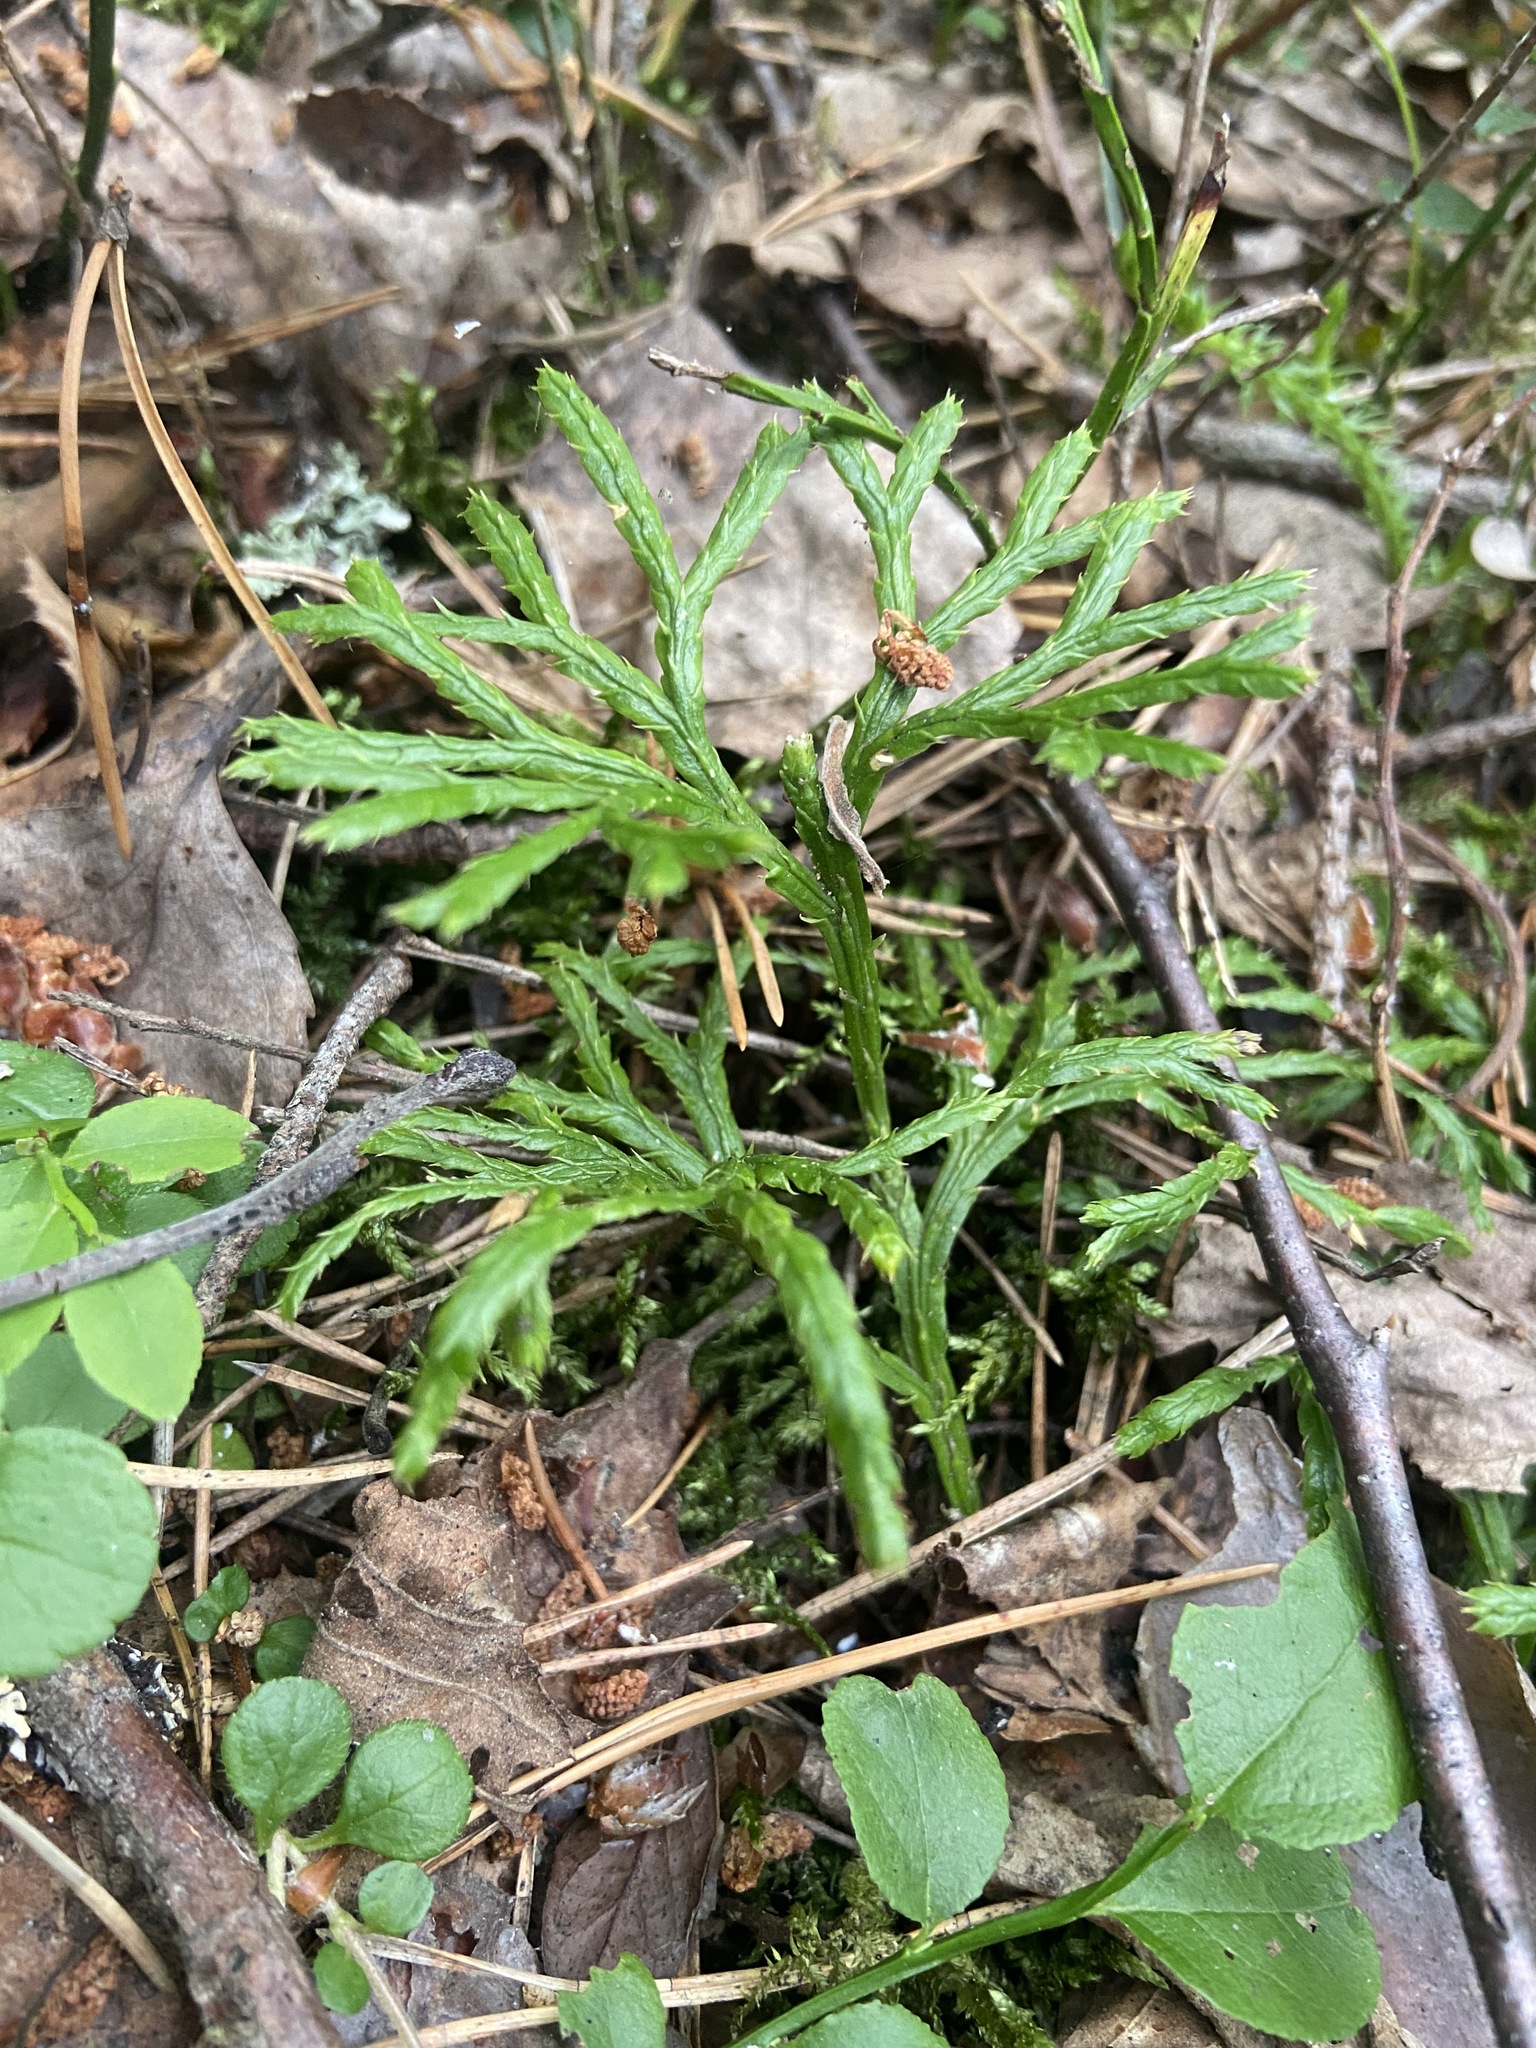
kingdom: Plantae
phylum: Tracheophyta
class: Lycopodiopsida
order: Lycopodiales
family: Lycopodiaceae
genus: Diphasiastrum
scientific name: Diphasiastrum complanatum
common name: Northern running-pine
